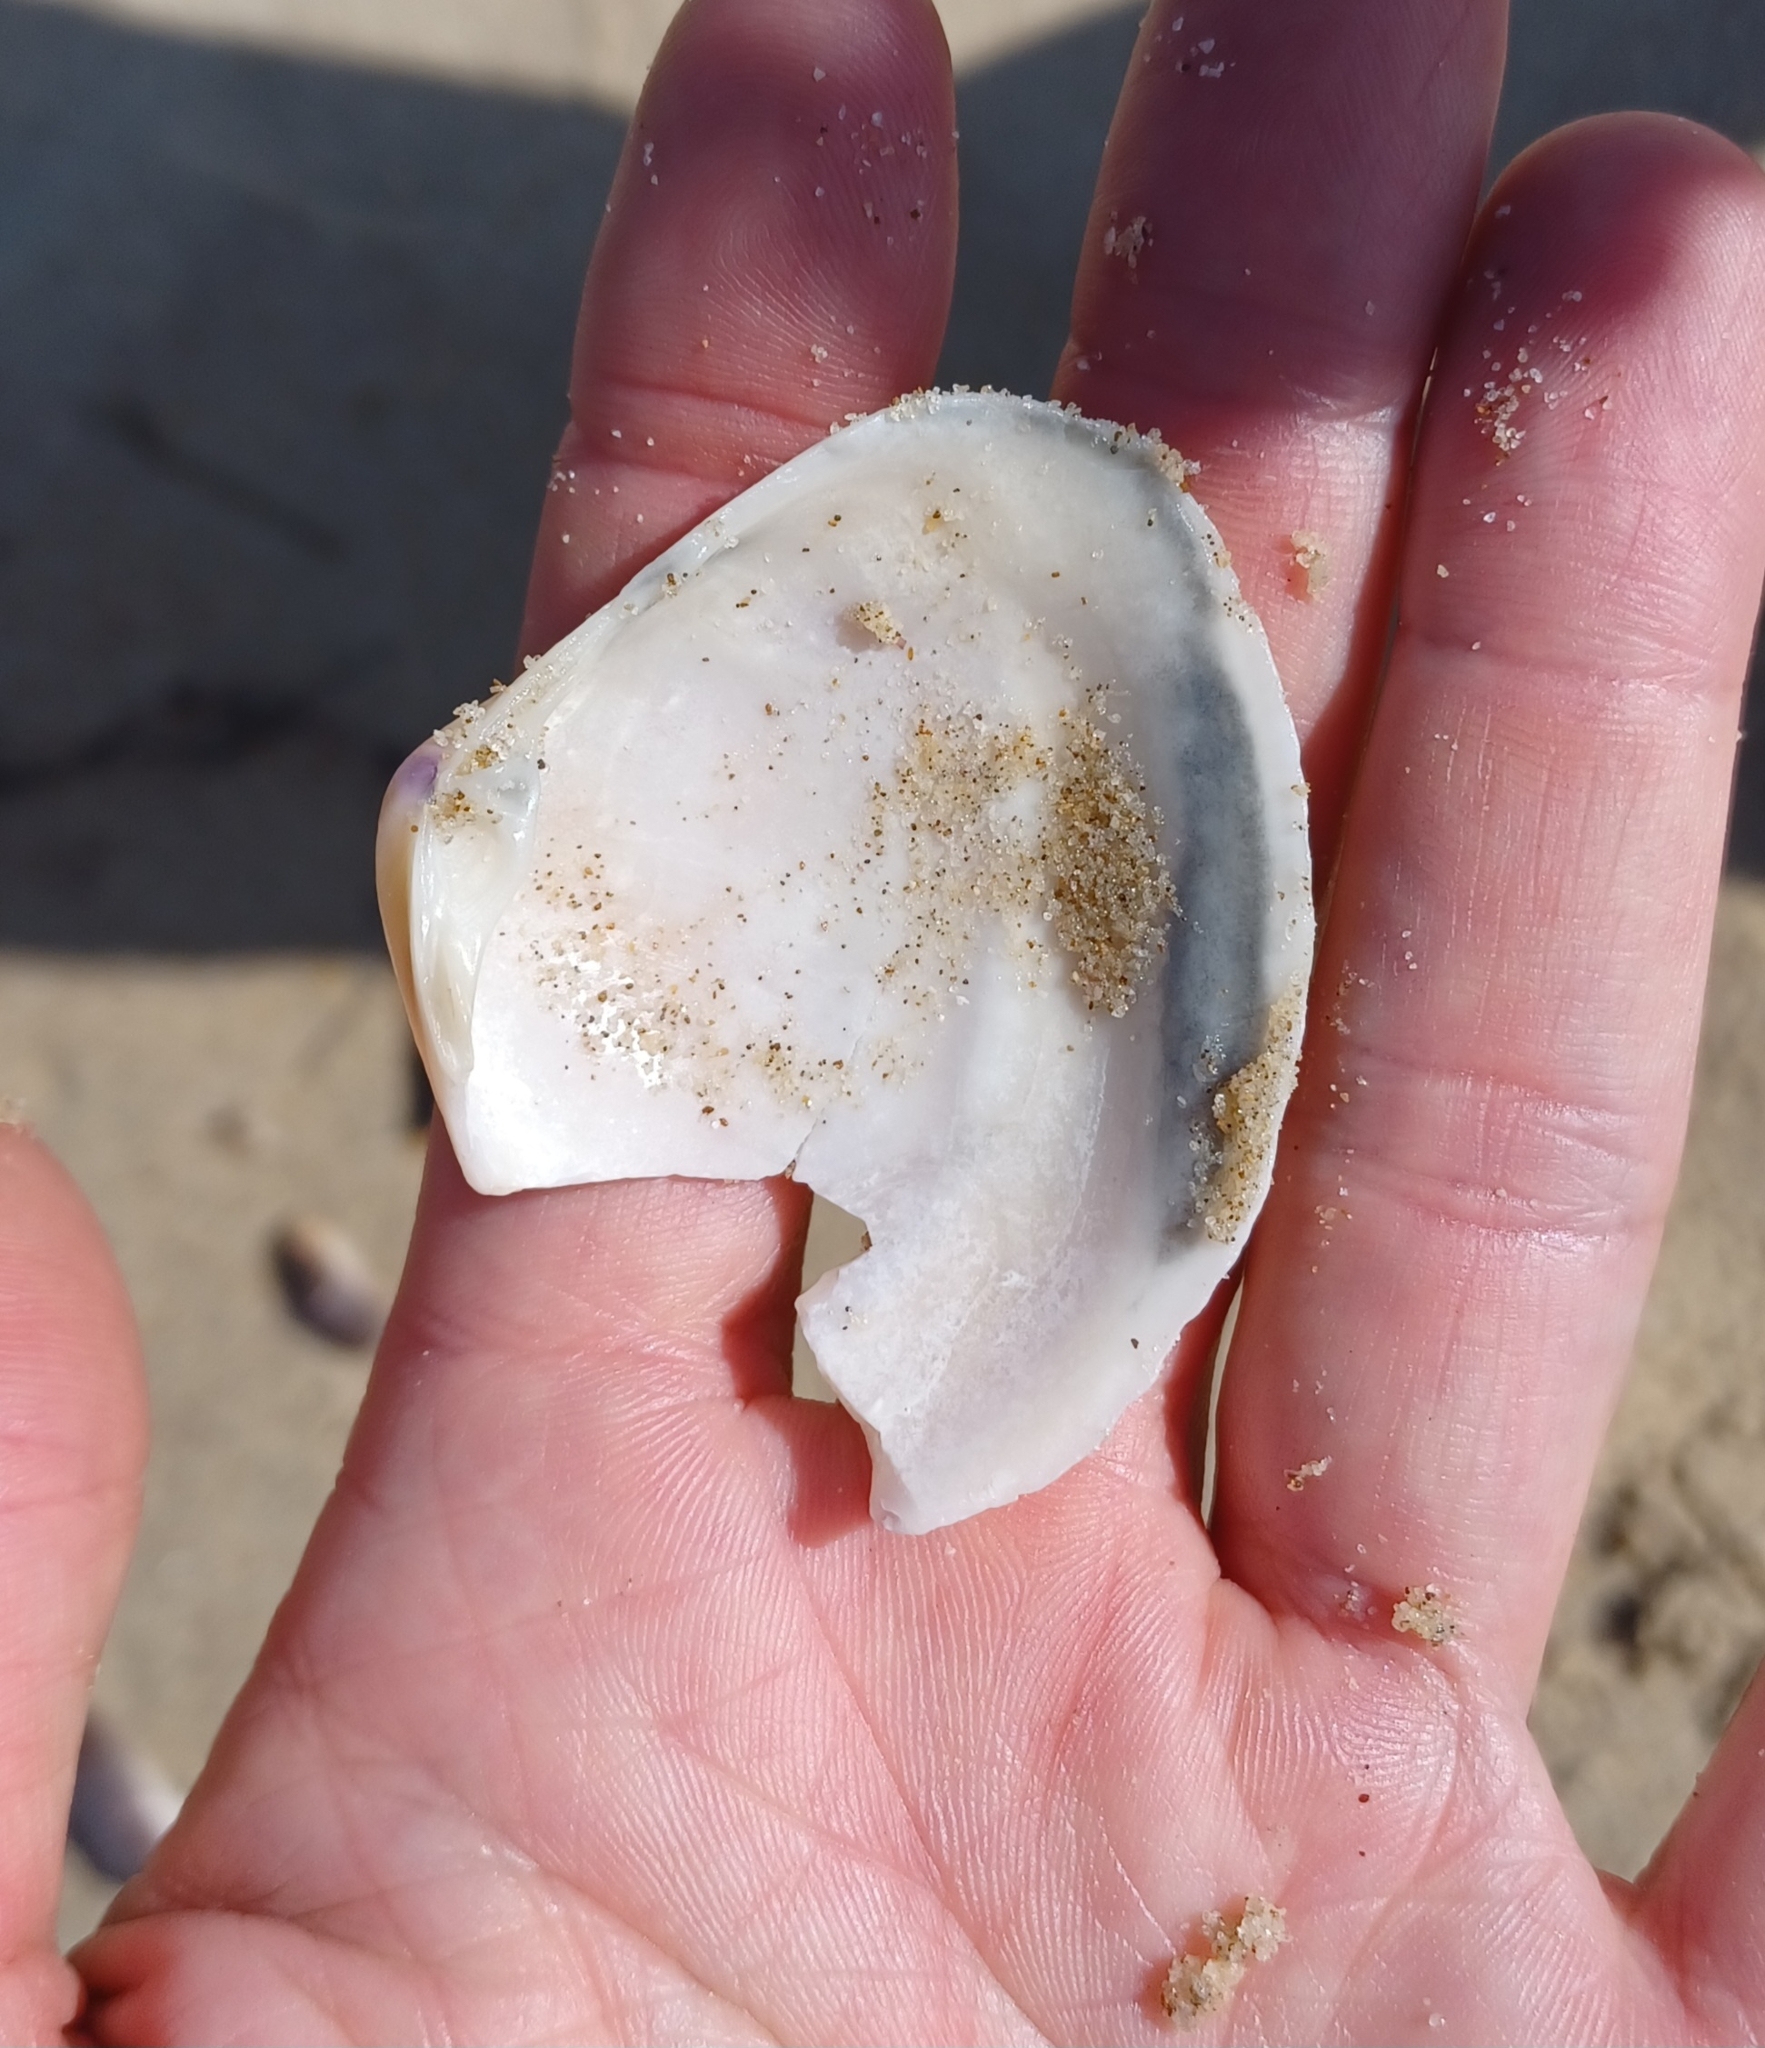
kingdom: Animalia
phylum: Mollusca
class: Bivalvia
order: Venerida
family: Mactridae
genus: Austromactra
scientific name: Austromactra rufescens
